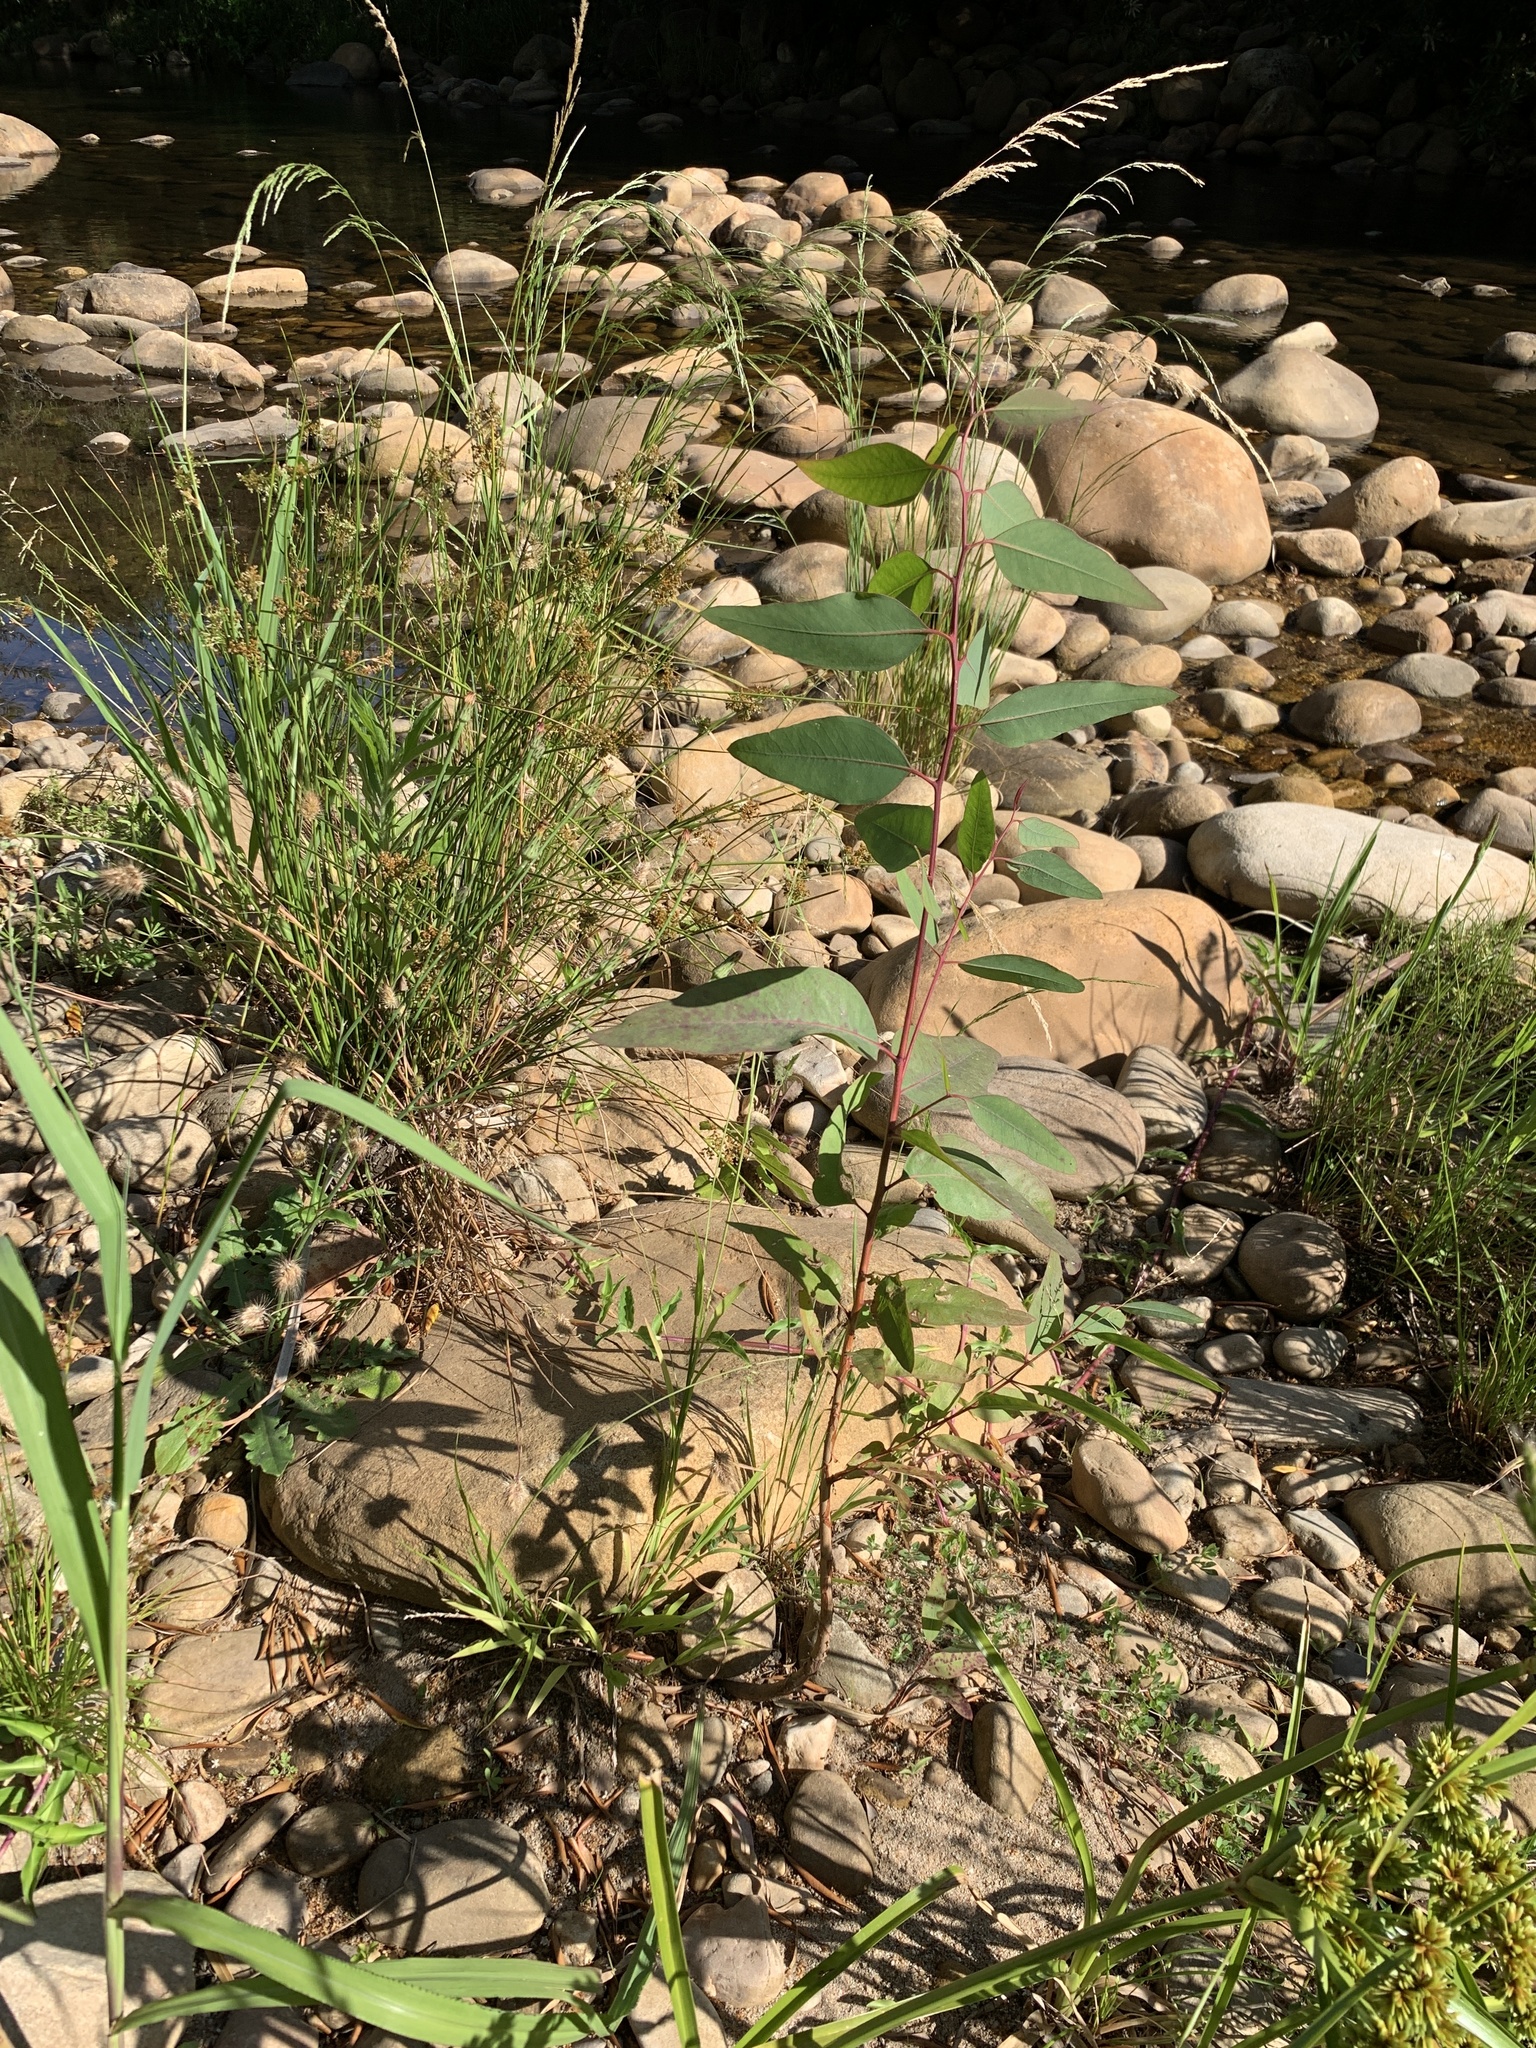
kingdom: Plantae
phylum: Tracheophyta
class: Magnoliopsida
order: Myrtales
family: Myrtaceae
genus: Eucalyptus
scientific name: Eucalyptus camaldulensis
